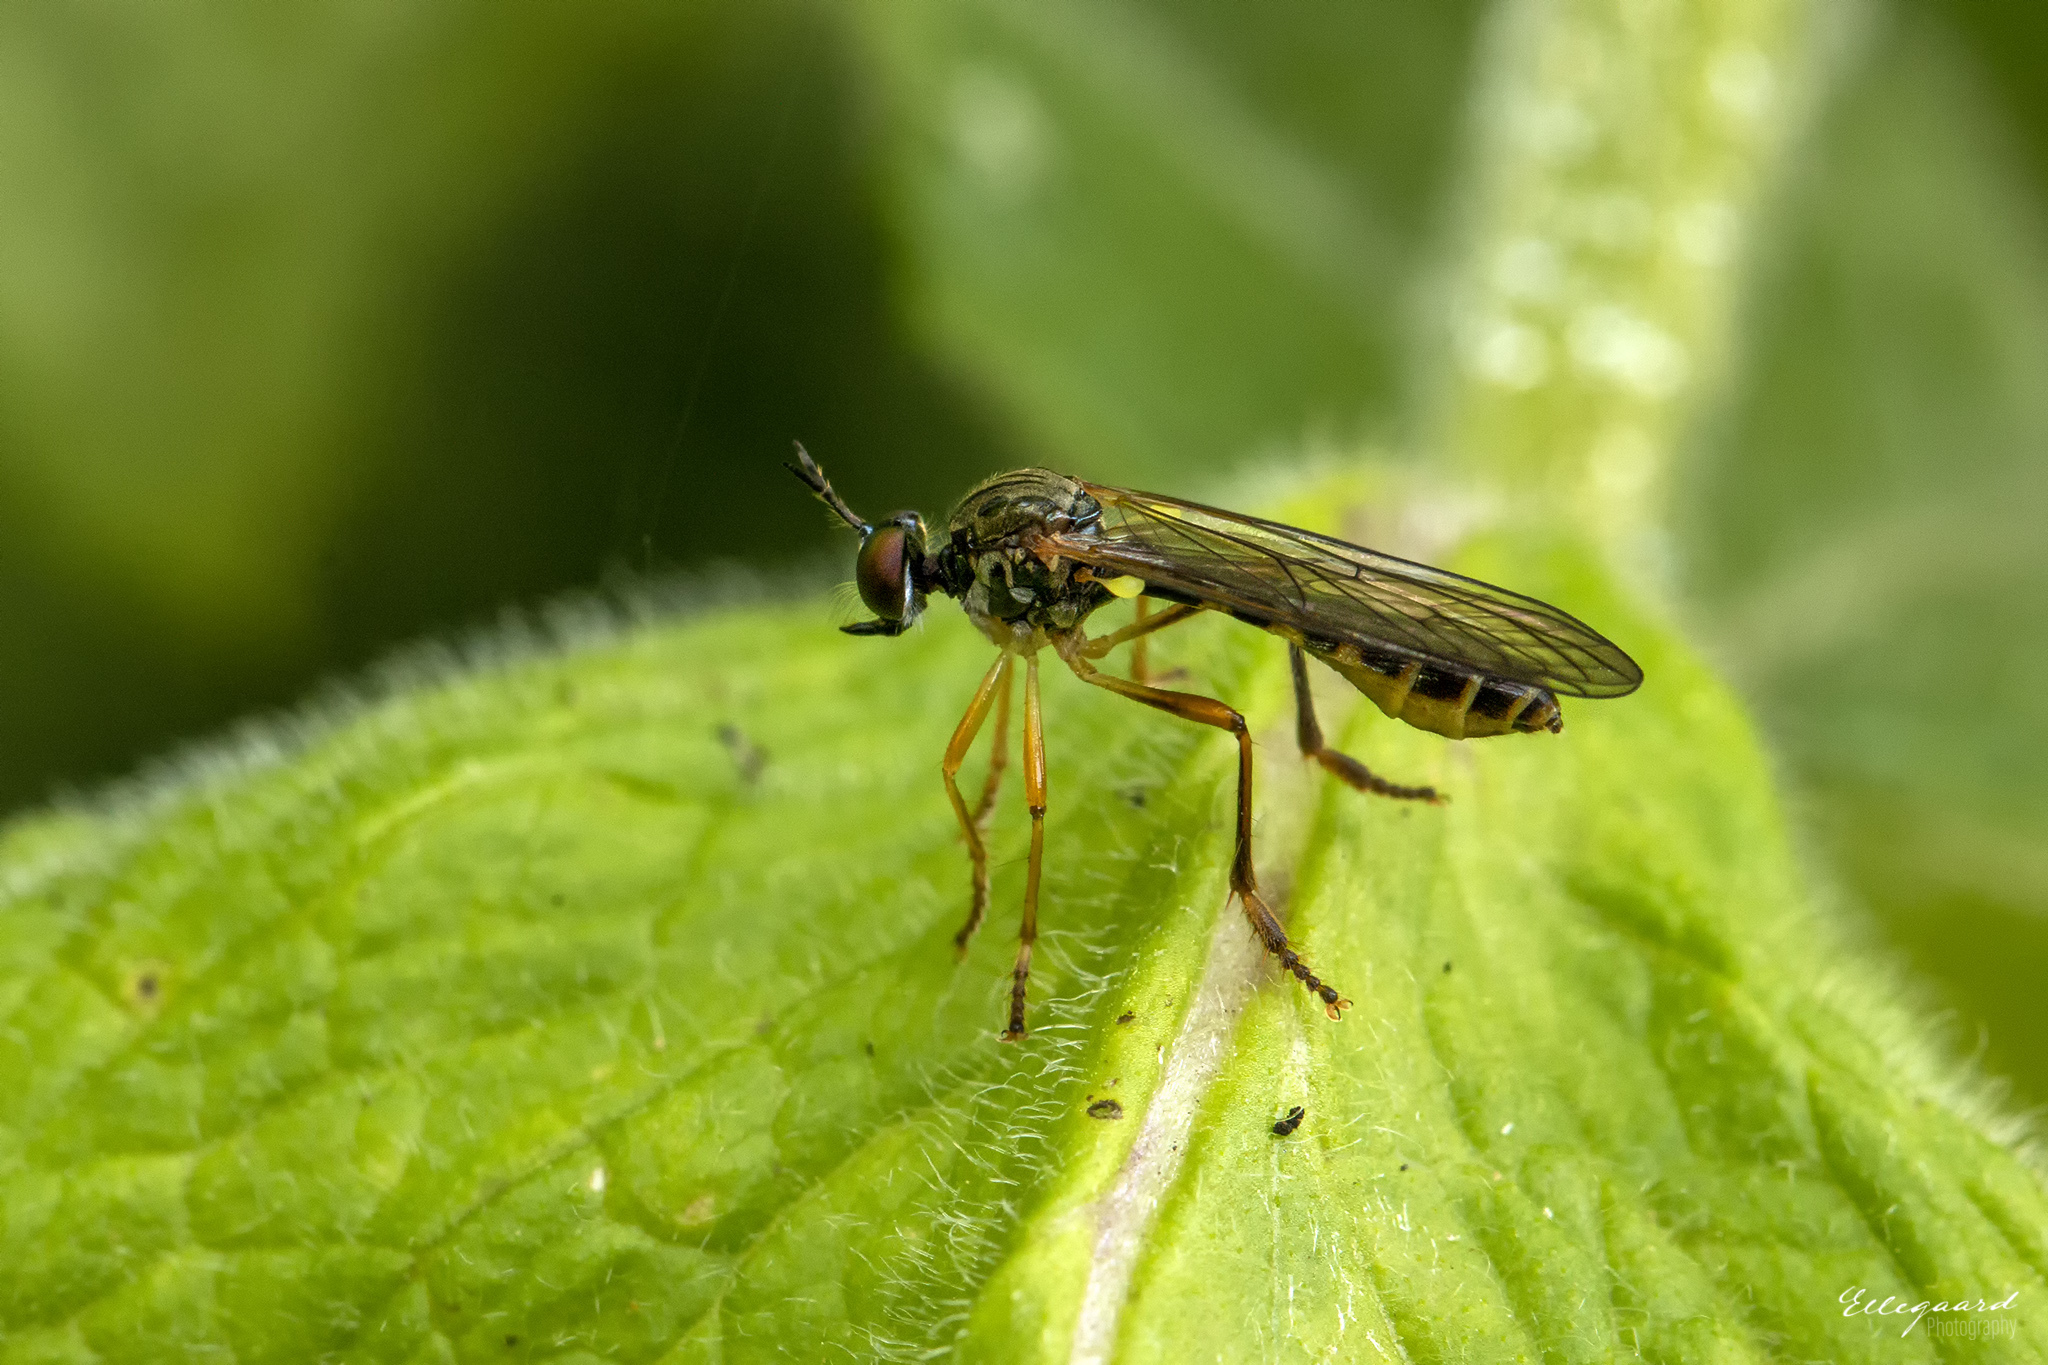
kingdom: Animalia
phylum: Arthropoda
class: Insecta
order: Diptera
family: Asilidae
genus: Dioctria
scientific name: Dioctria linearis
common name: Small yellow-legged robberfly
